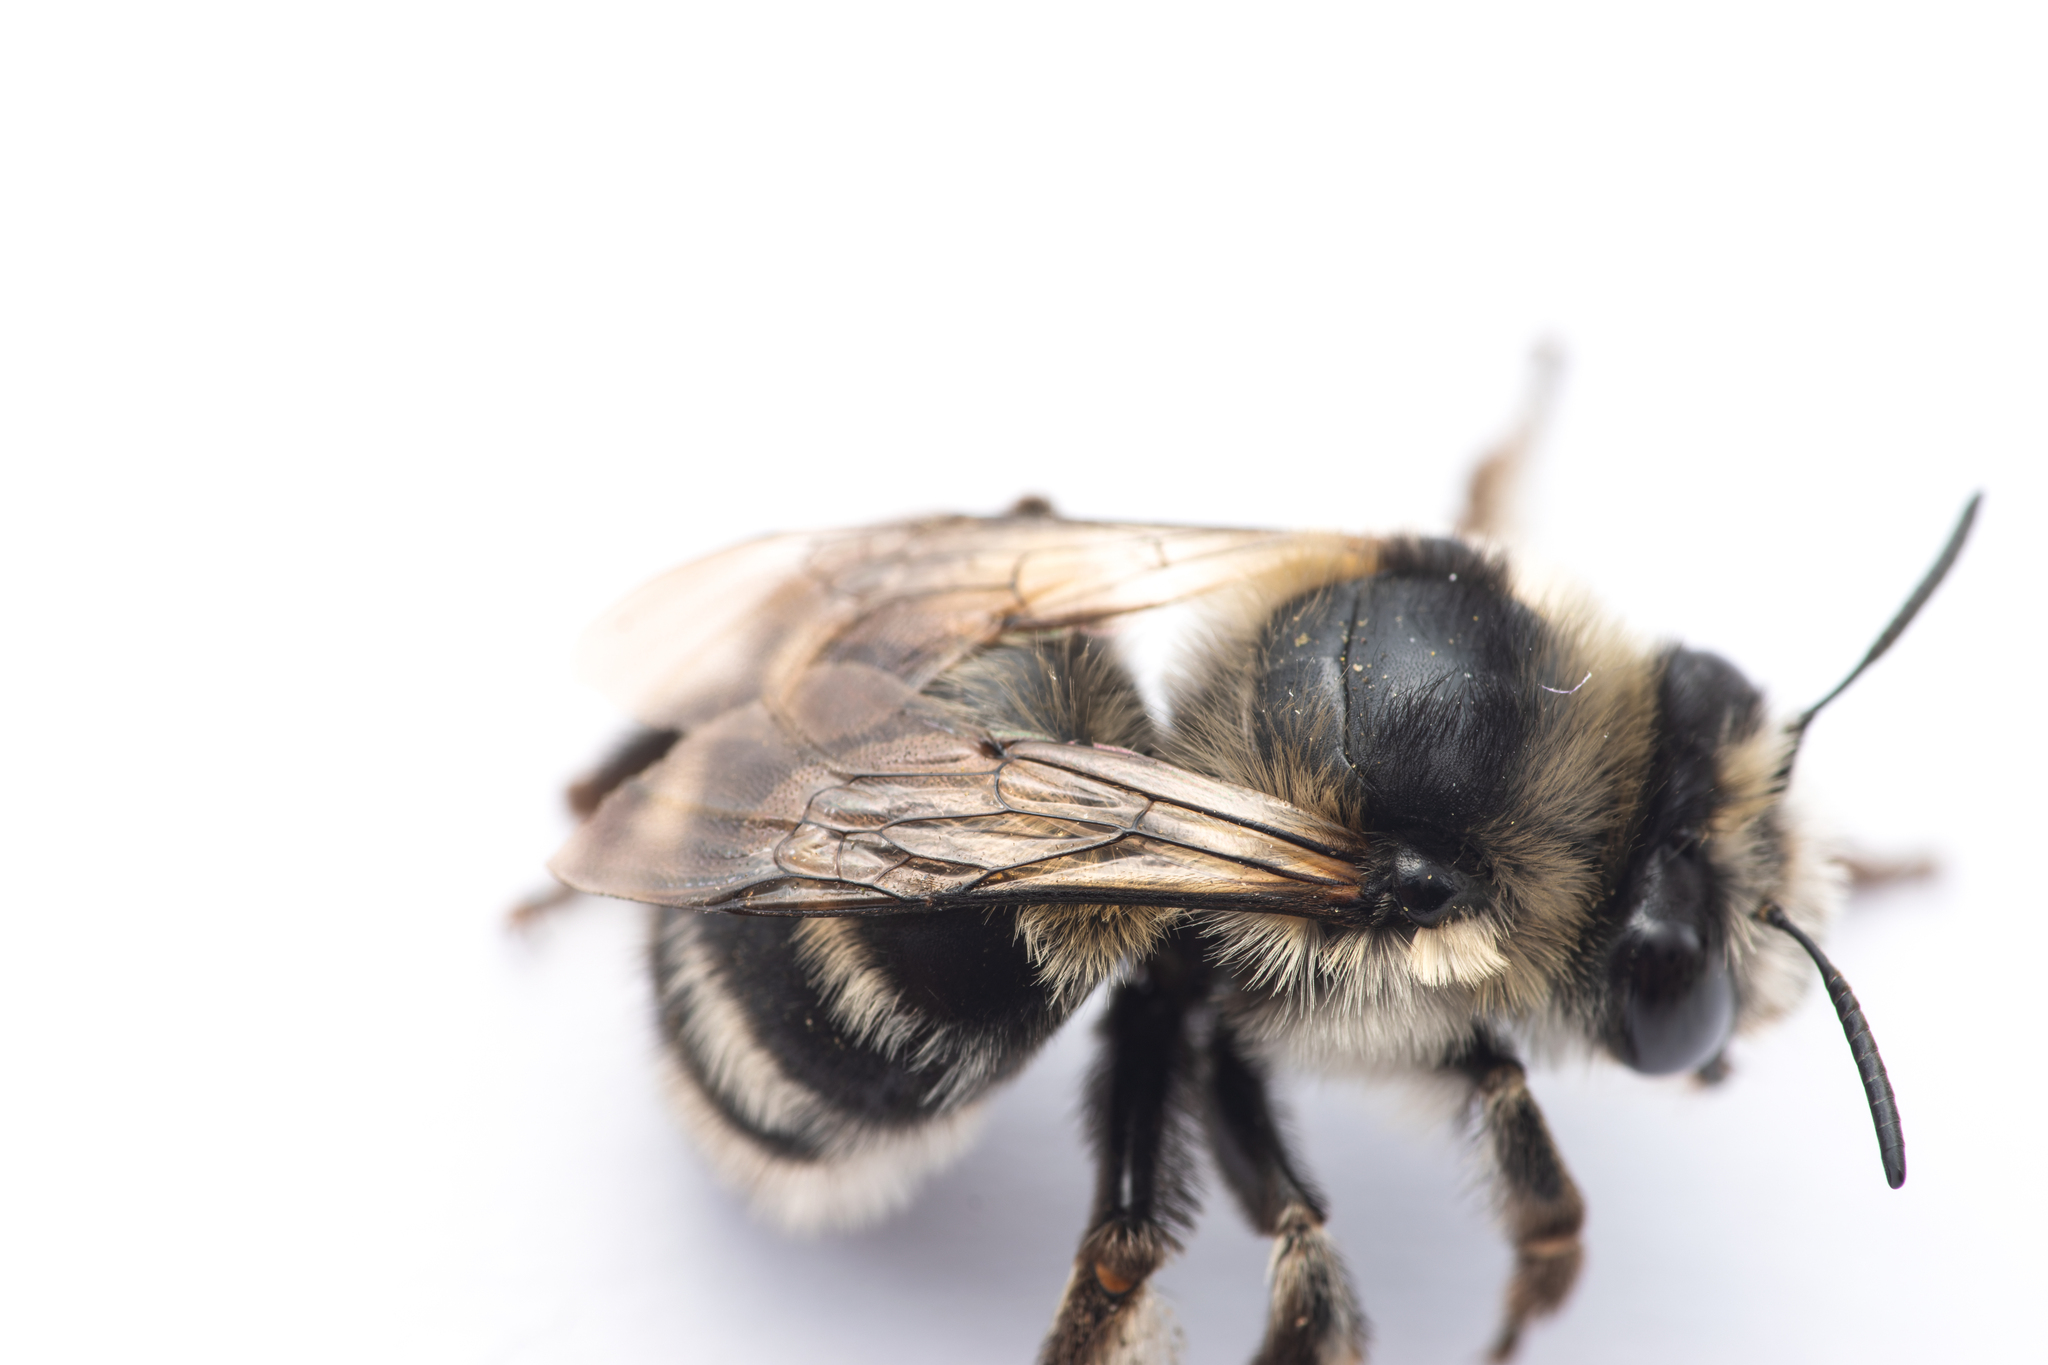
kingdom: Animalia
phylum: Arthropoda
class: Insecta
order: Hymenoptera
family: Apidae
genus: Anthophora
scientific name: Anthophora atroalba
